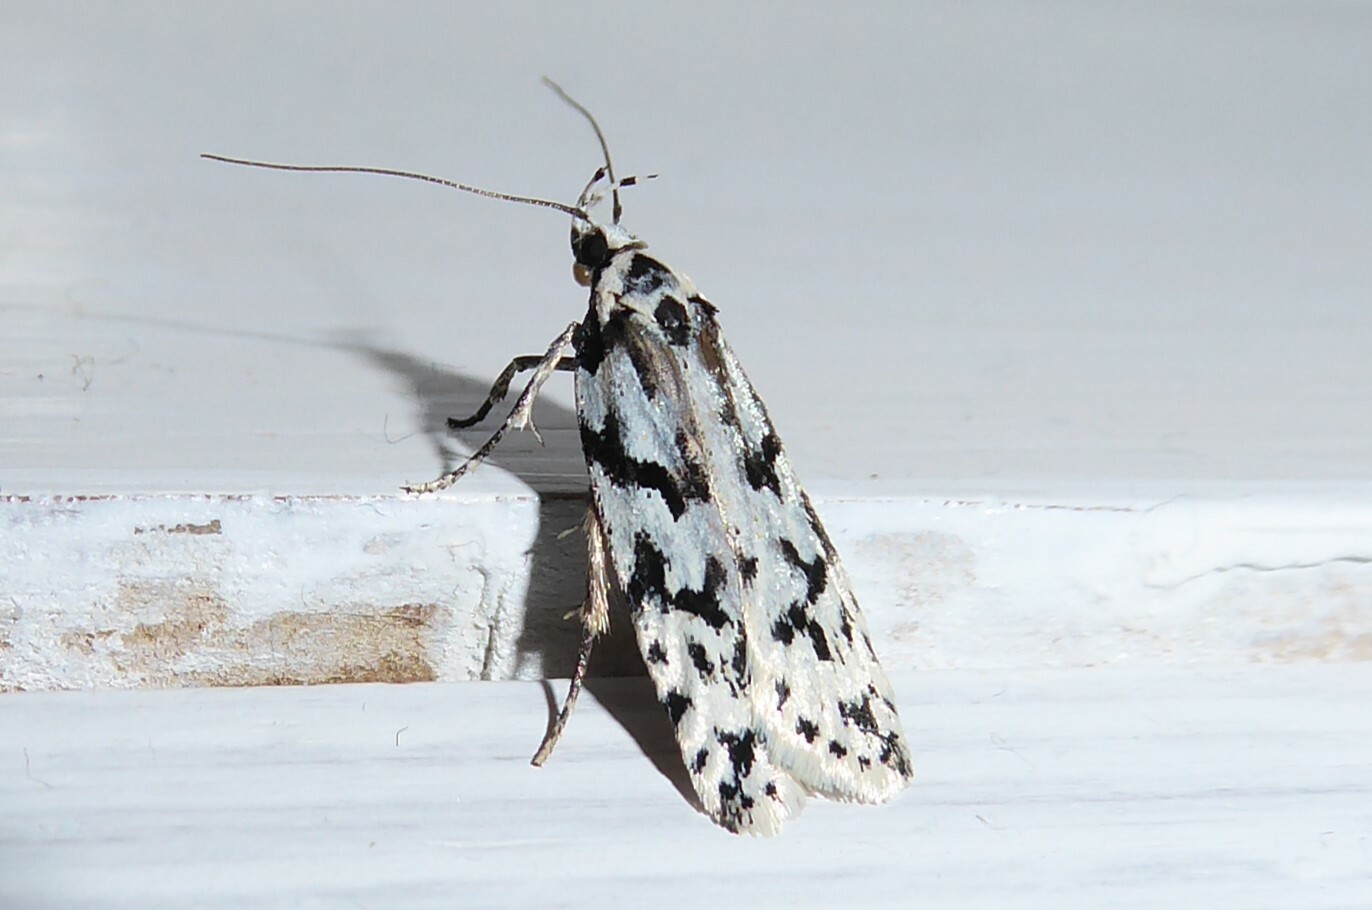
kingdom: Animalia
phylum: Arthropoda
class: Insecta
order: Lepidoptera
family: Oecophoridae
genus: Izatha
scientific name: Izatha katadiktya
